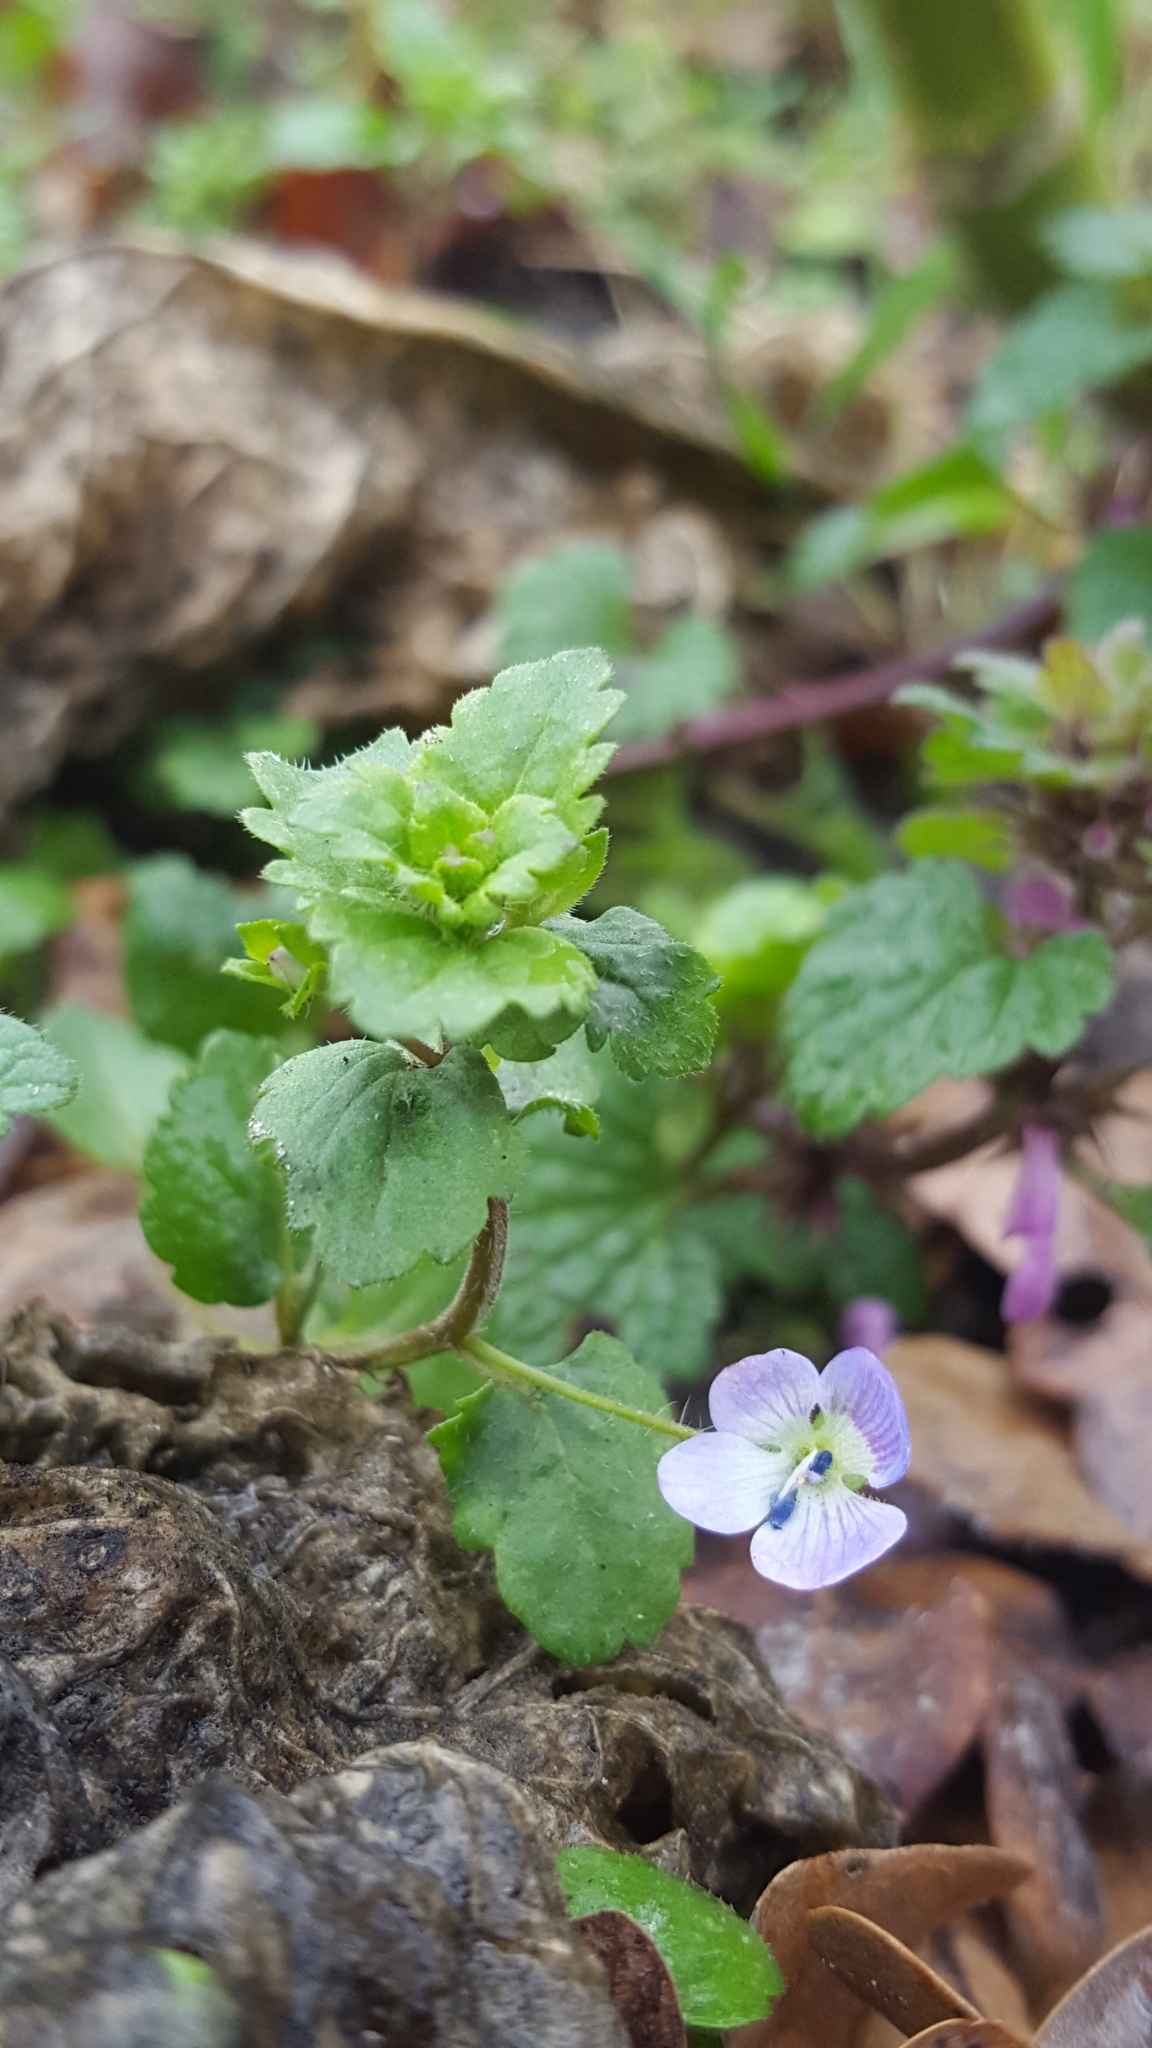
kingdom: Plantae
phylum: Tracheophyta
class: Magnoliopsida
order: Lamiales
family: Plantaginaceae
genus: Veronica
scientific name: Veronica persica
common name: Common field-speedwell
